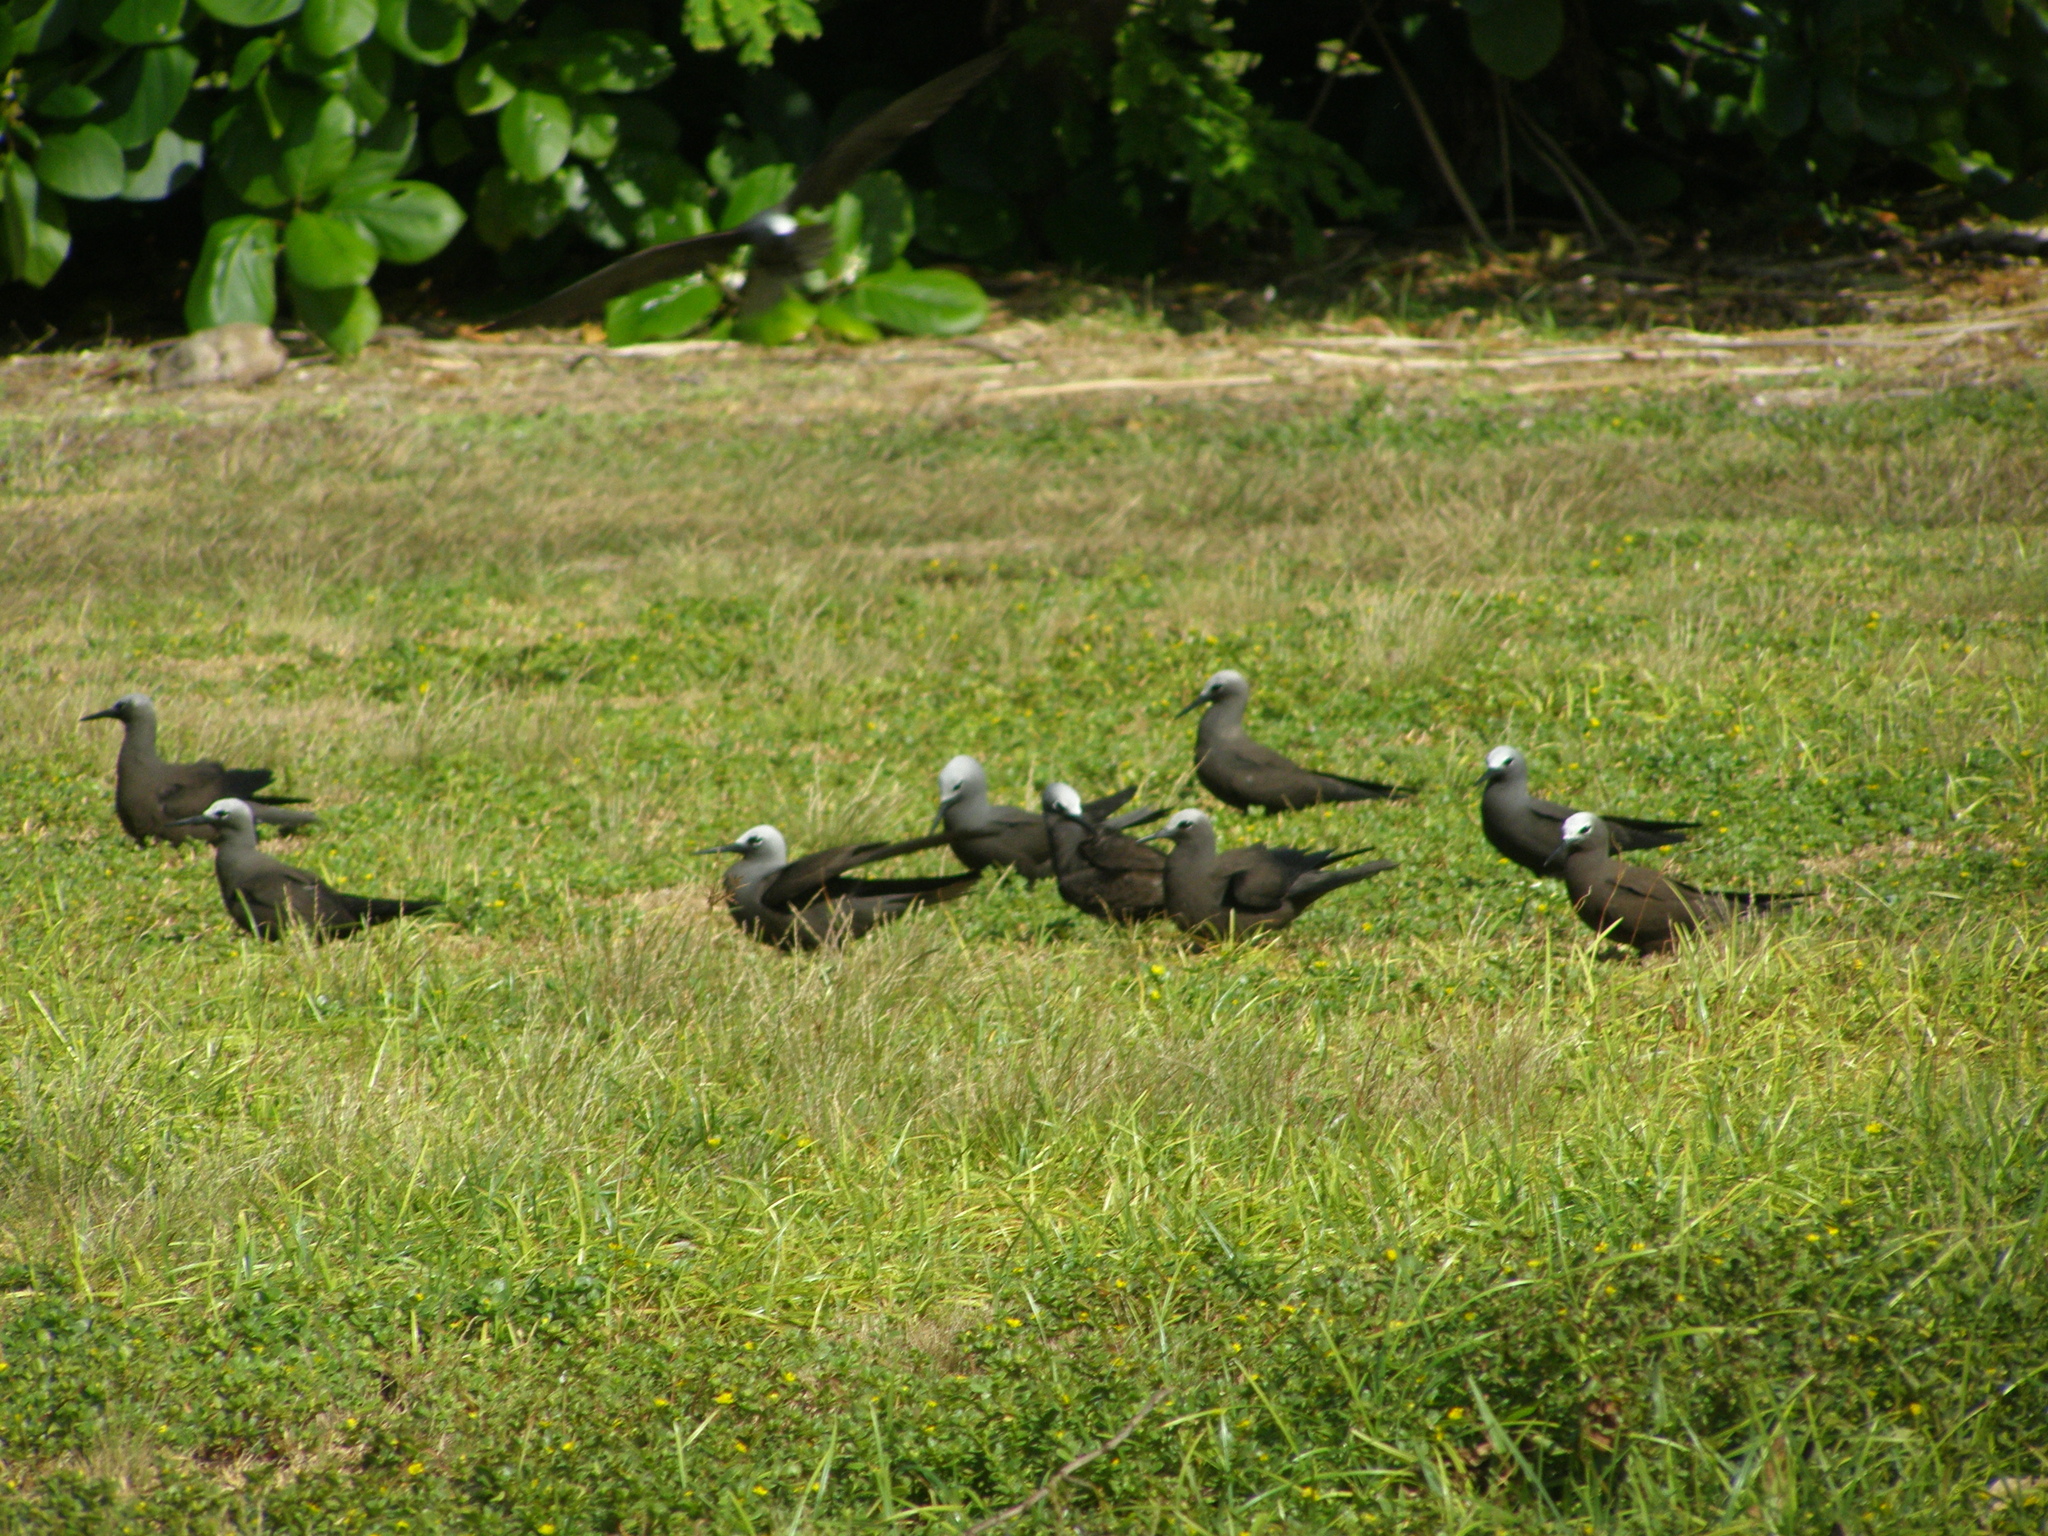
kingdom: Animalia
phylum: Chordata
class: Aves
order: Charadriiformes
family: Laridae
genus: Anous
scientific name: Anous tenuirostris
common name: Lesser noddy
